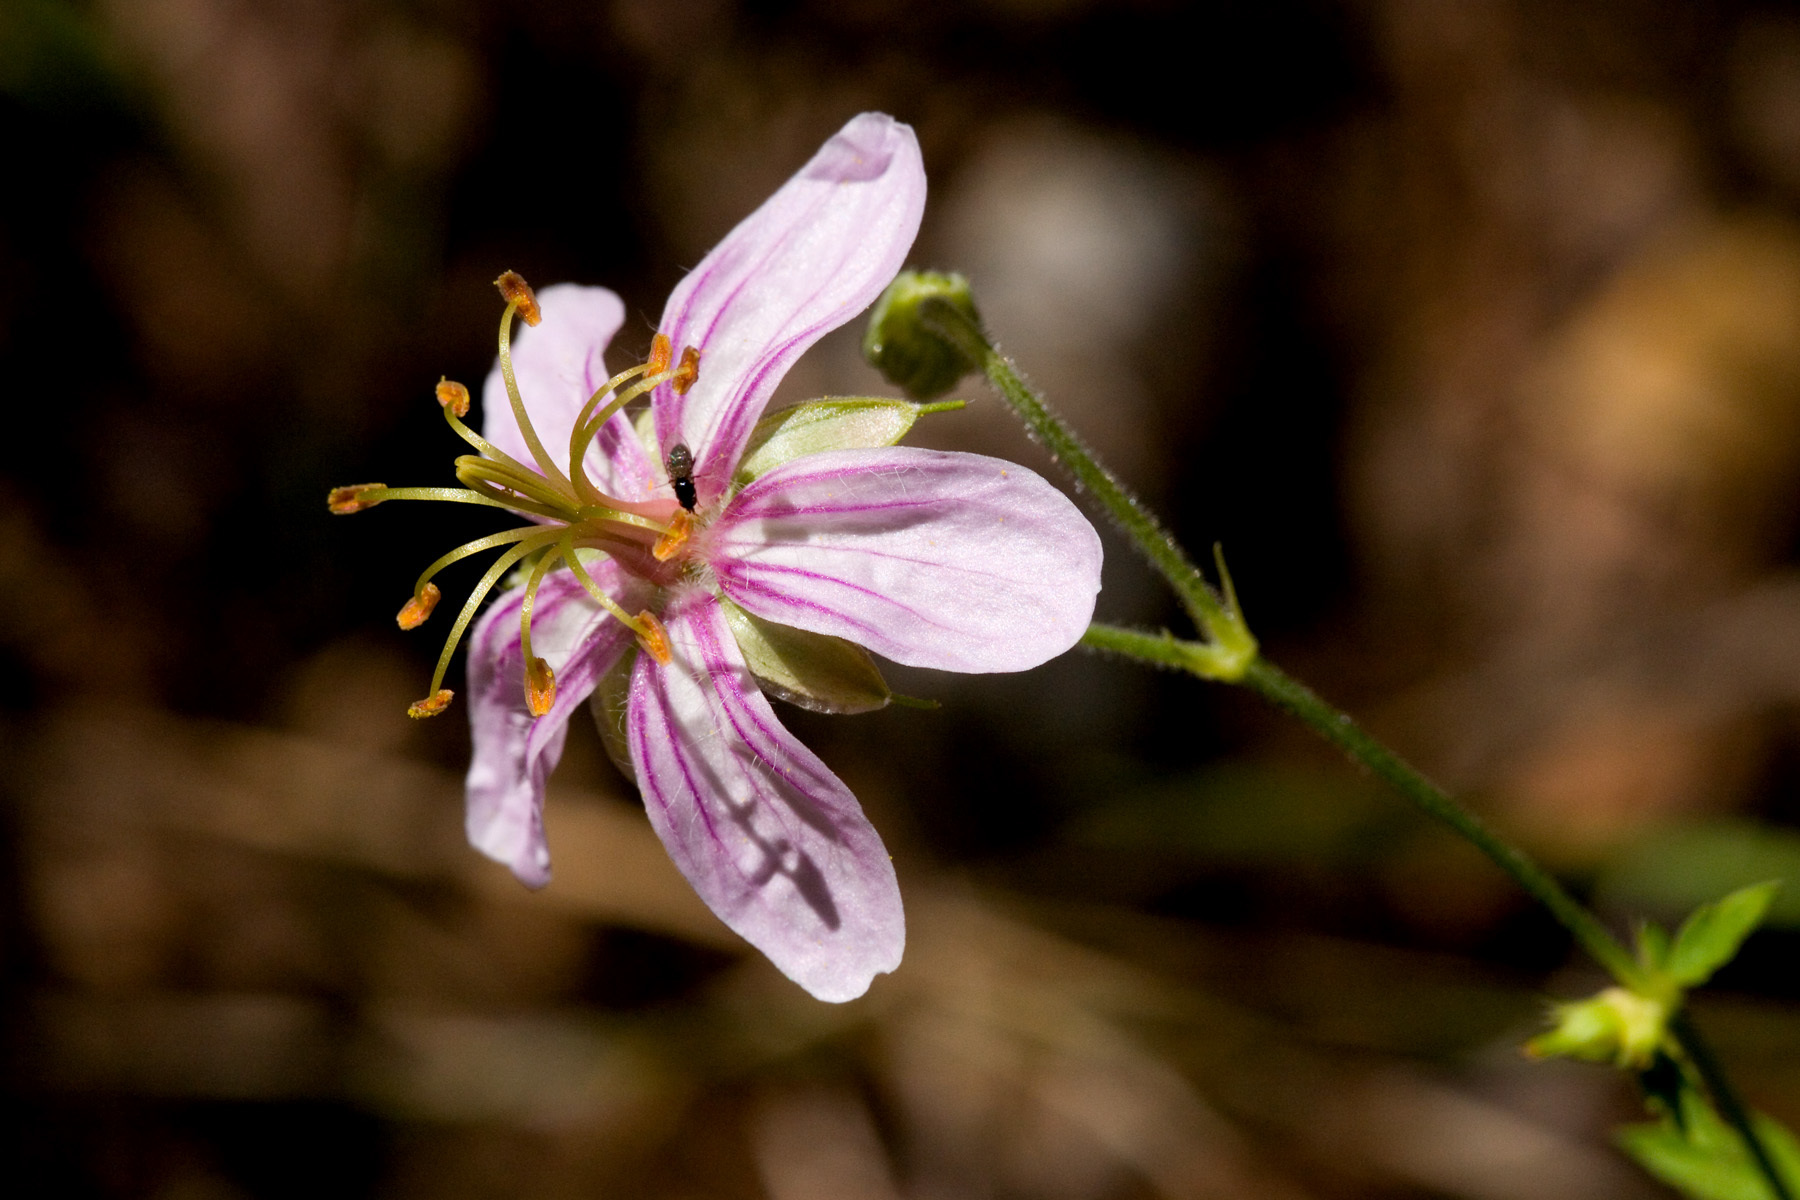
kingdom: Plantae
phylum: Tracheophyta
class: Magnoliopsida
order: Geraniales
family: Geraniaceae
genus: Geranium
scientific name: Geranium caespitosum
